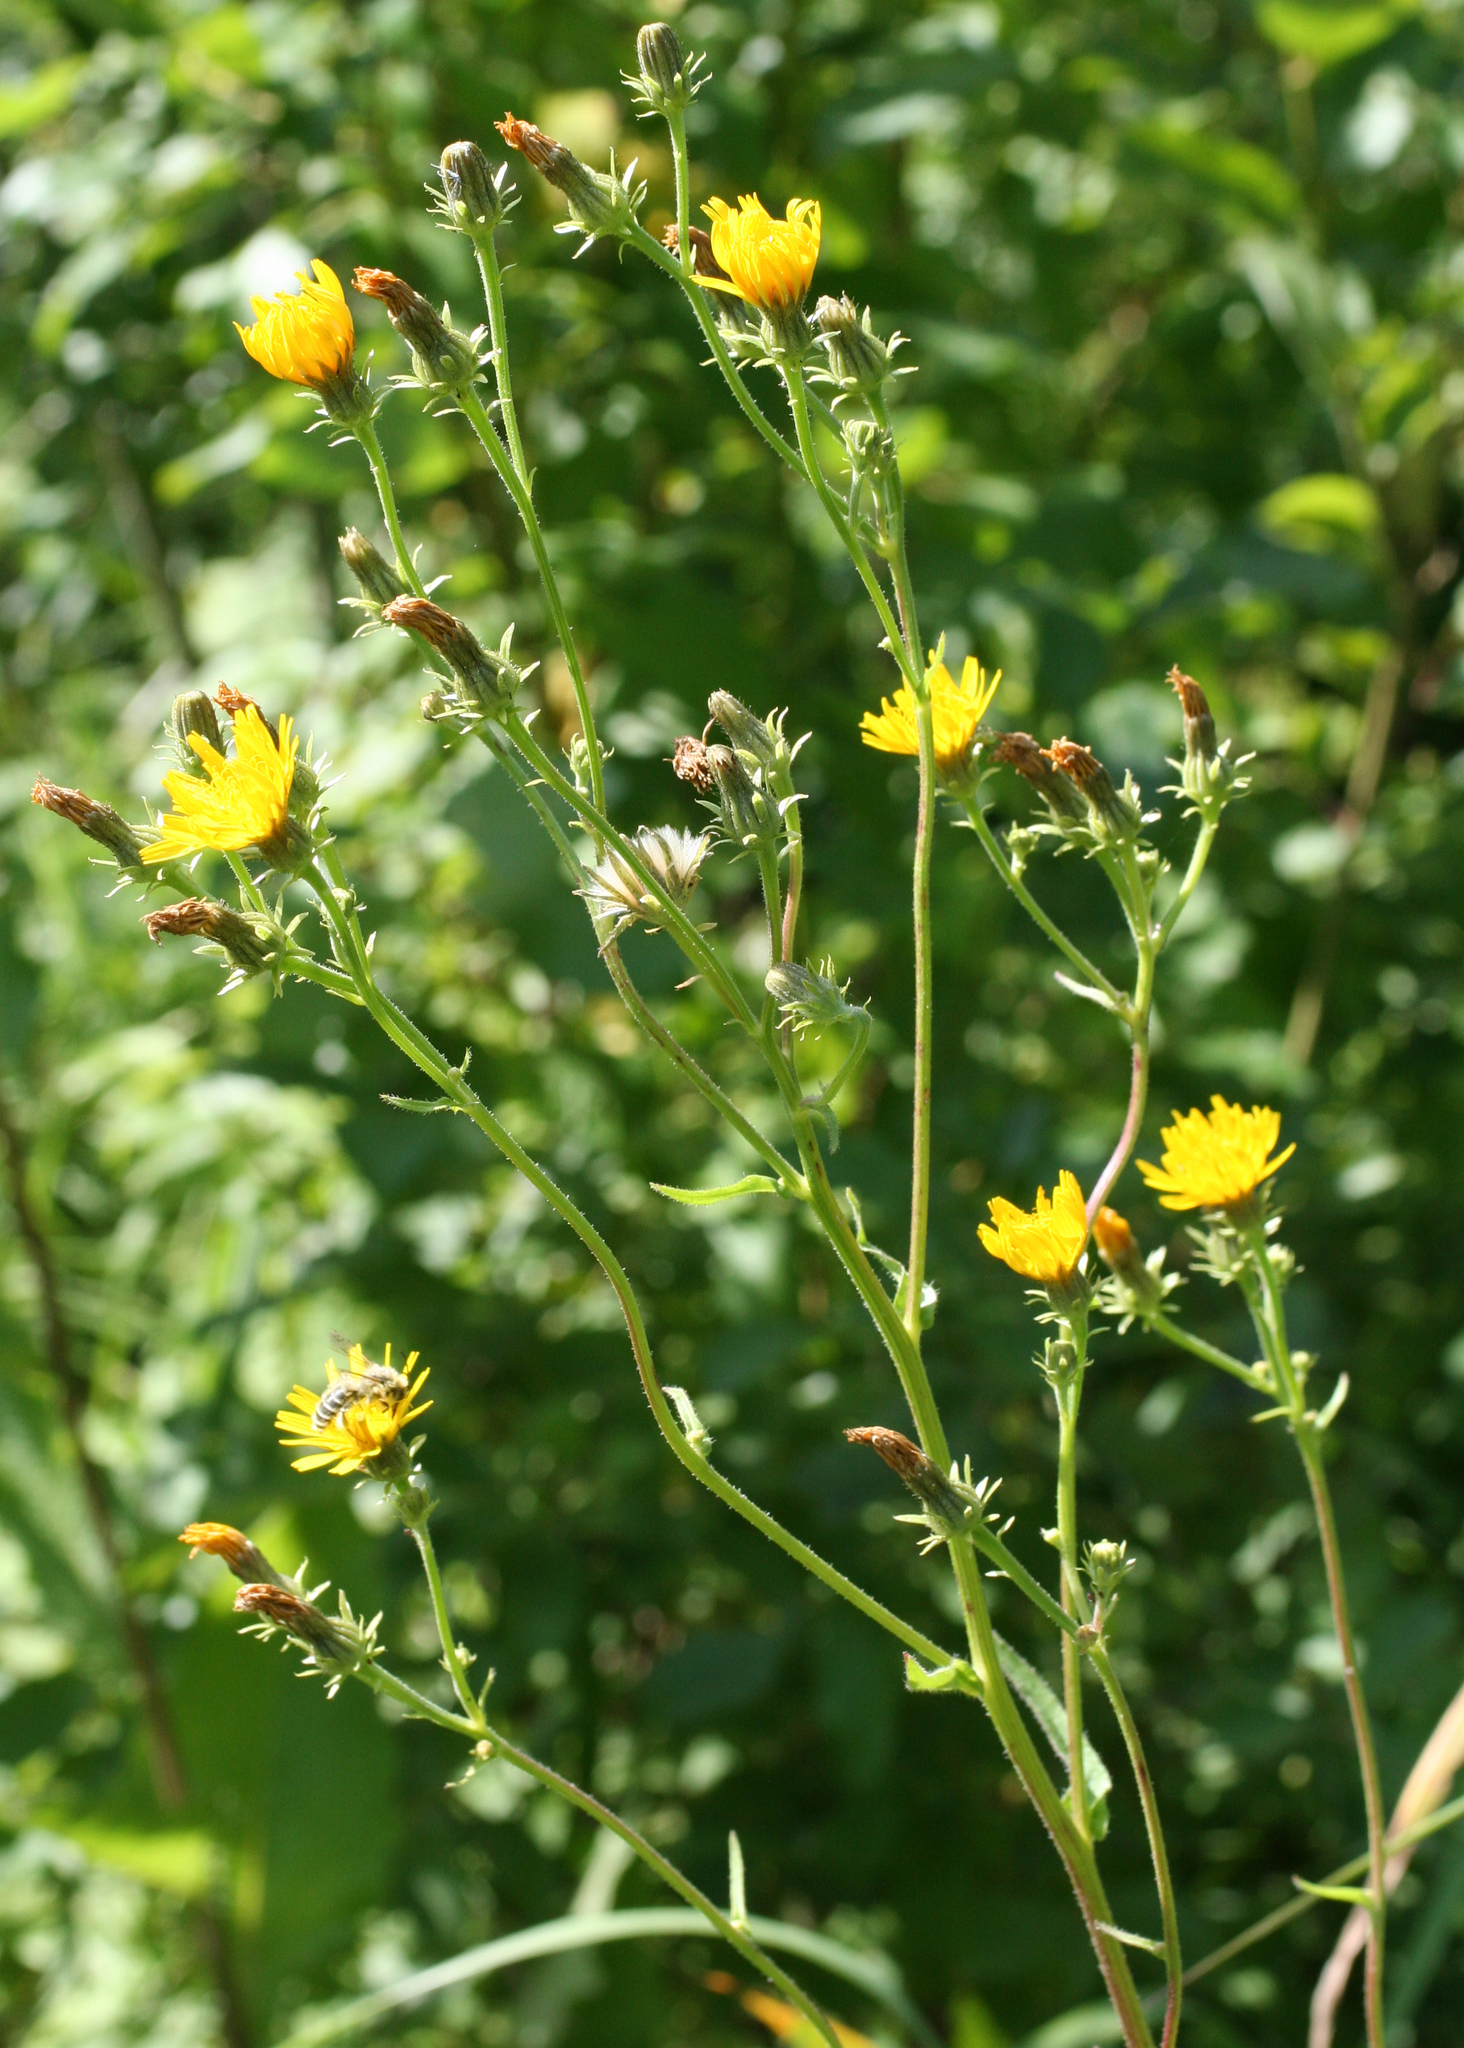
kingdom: Plantae
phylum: Tracheophyta
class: Magnoliopsida
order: Asterales
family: Asteraceae
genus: Picris
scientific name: Picris hieracioides
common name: Hawkweed oxtongue
